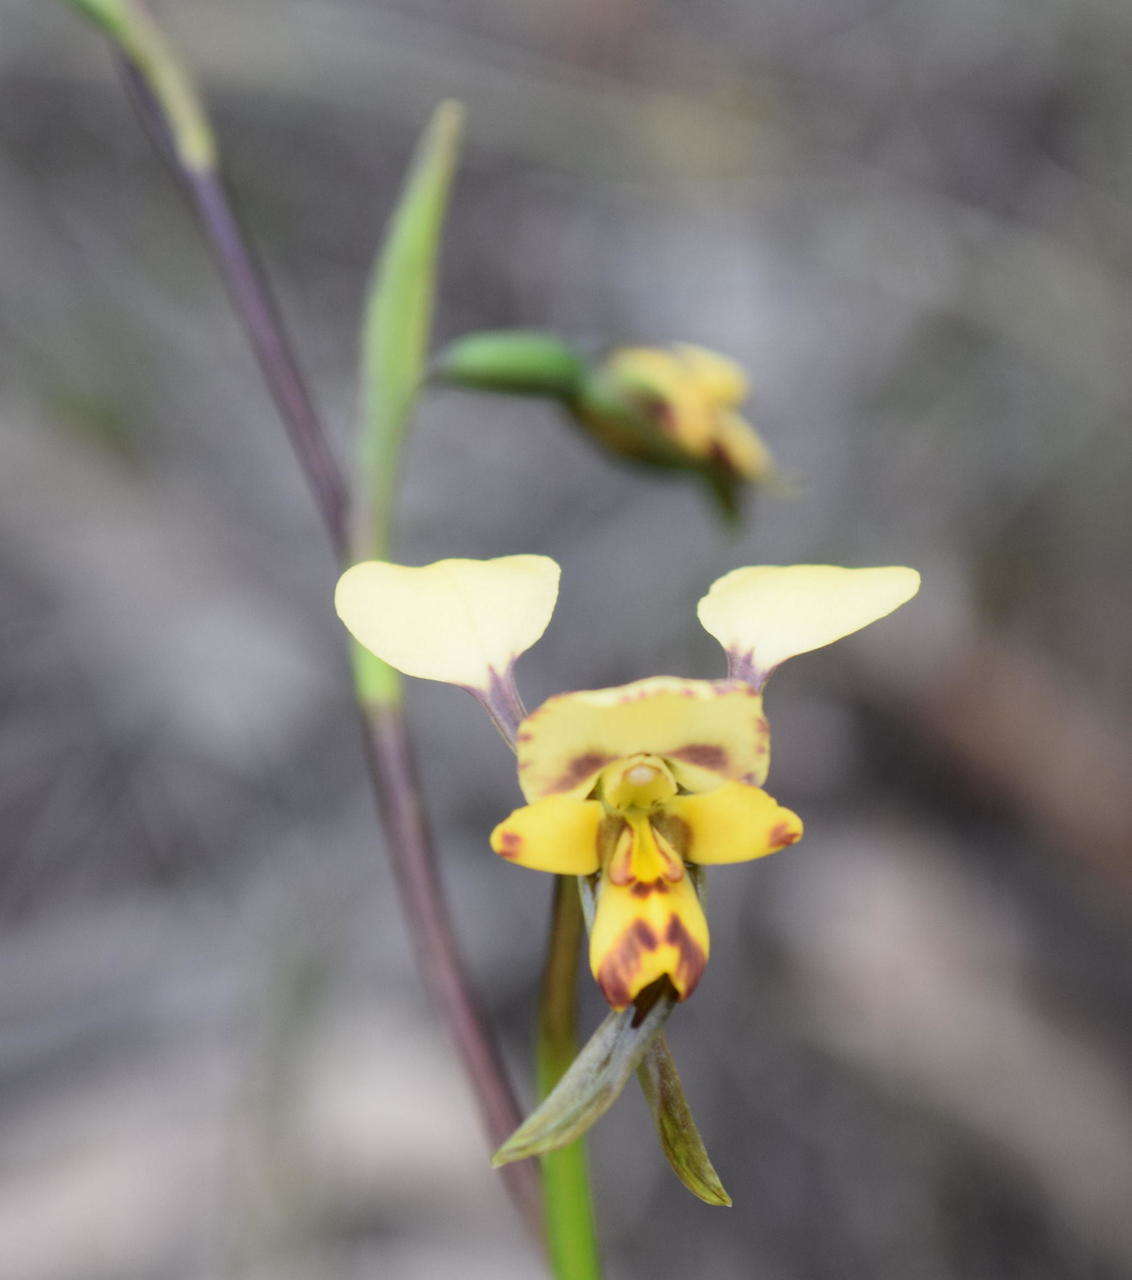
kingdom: Plantae
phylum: Tracheophyta
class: Liliopsida
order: Asparagales
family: Orchidaceae
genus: Diuris
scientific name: Diuris pardina
